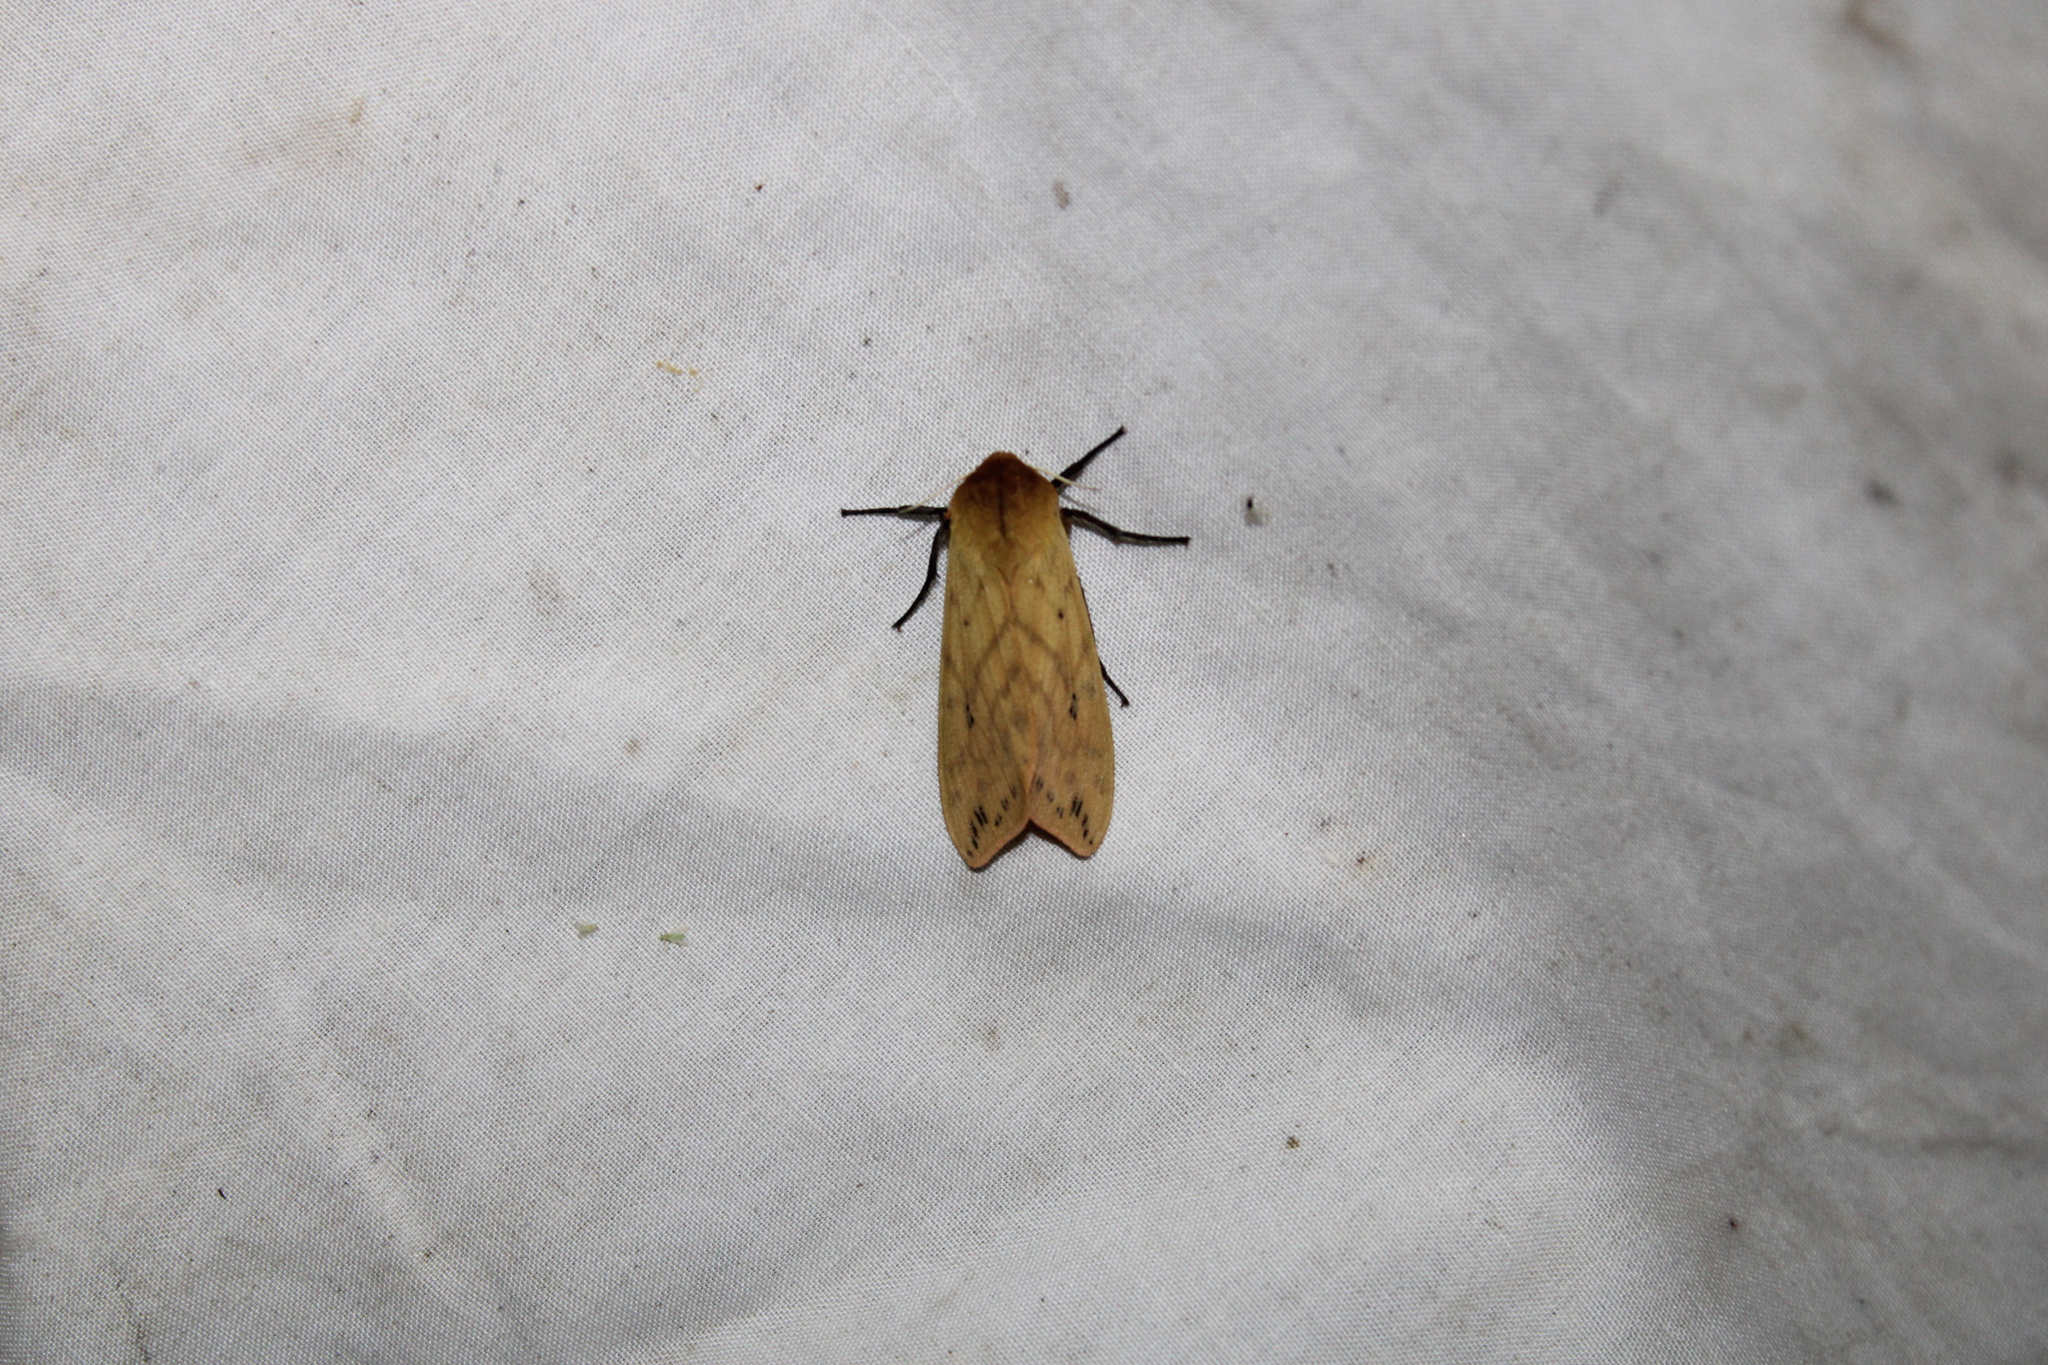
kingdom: Animalia
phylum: Arthropoda
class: Insecta
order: Lepidoptera
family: Erebidae
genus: Pyrrharctia
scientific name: Pyrrharctia isabella
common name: Isabella tiger moth
